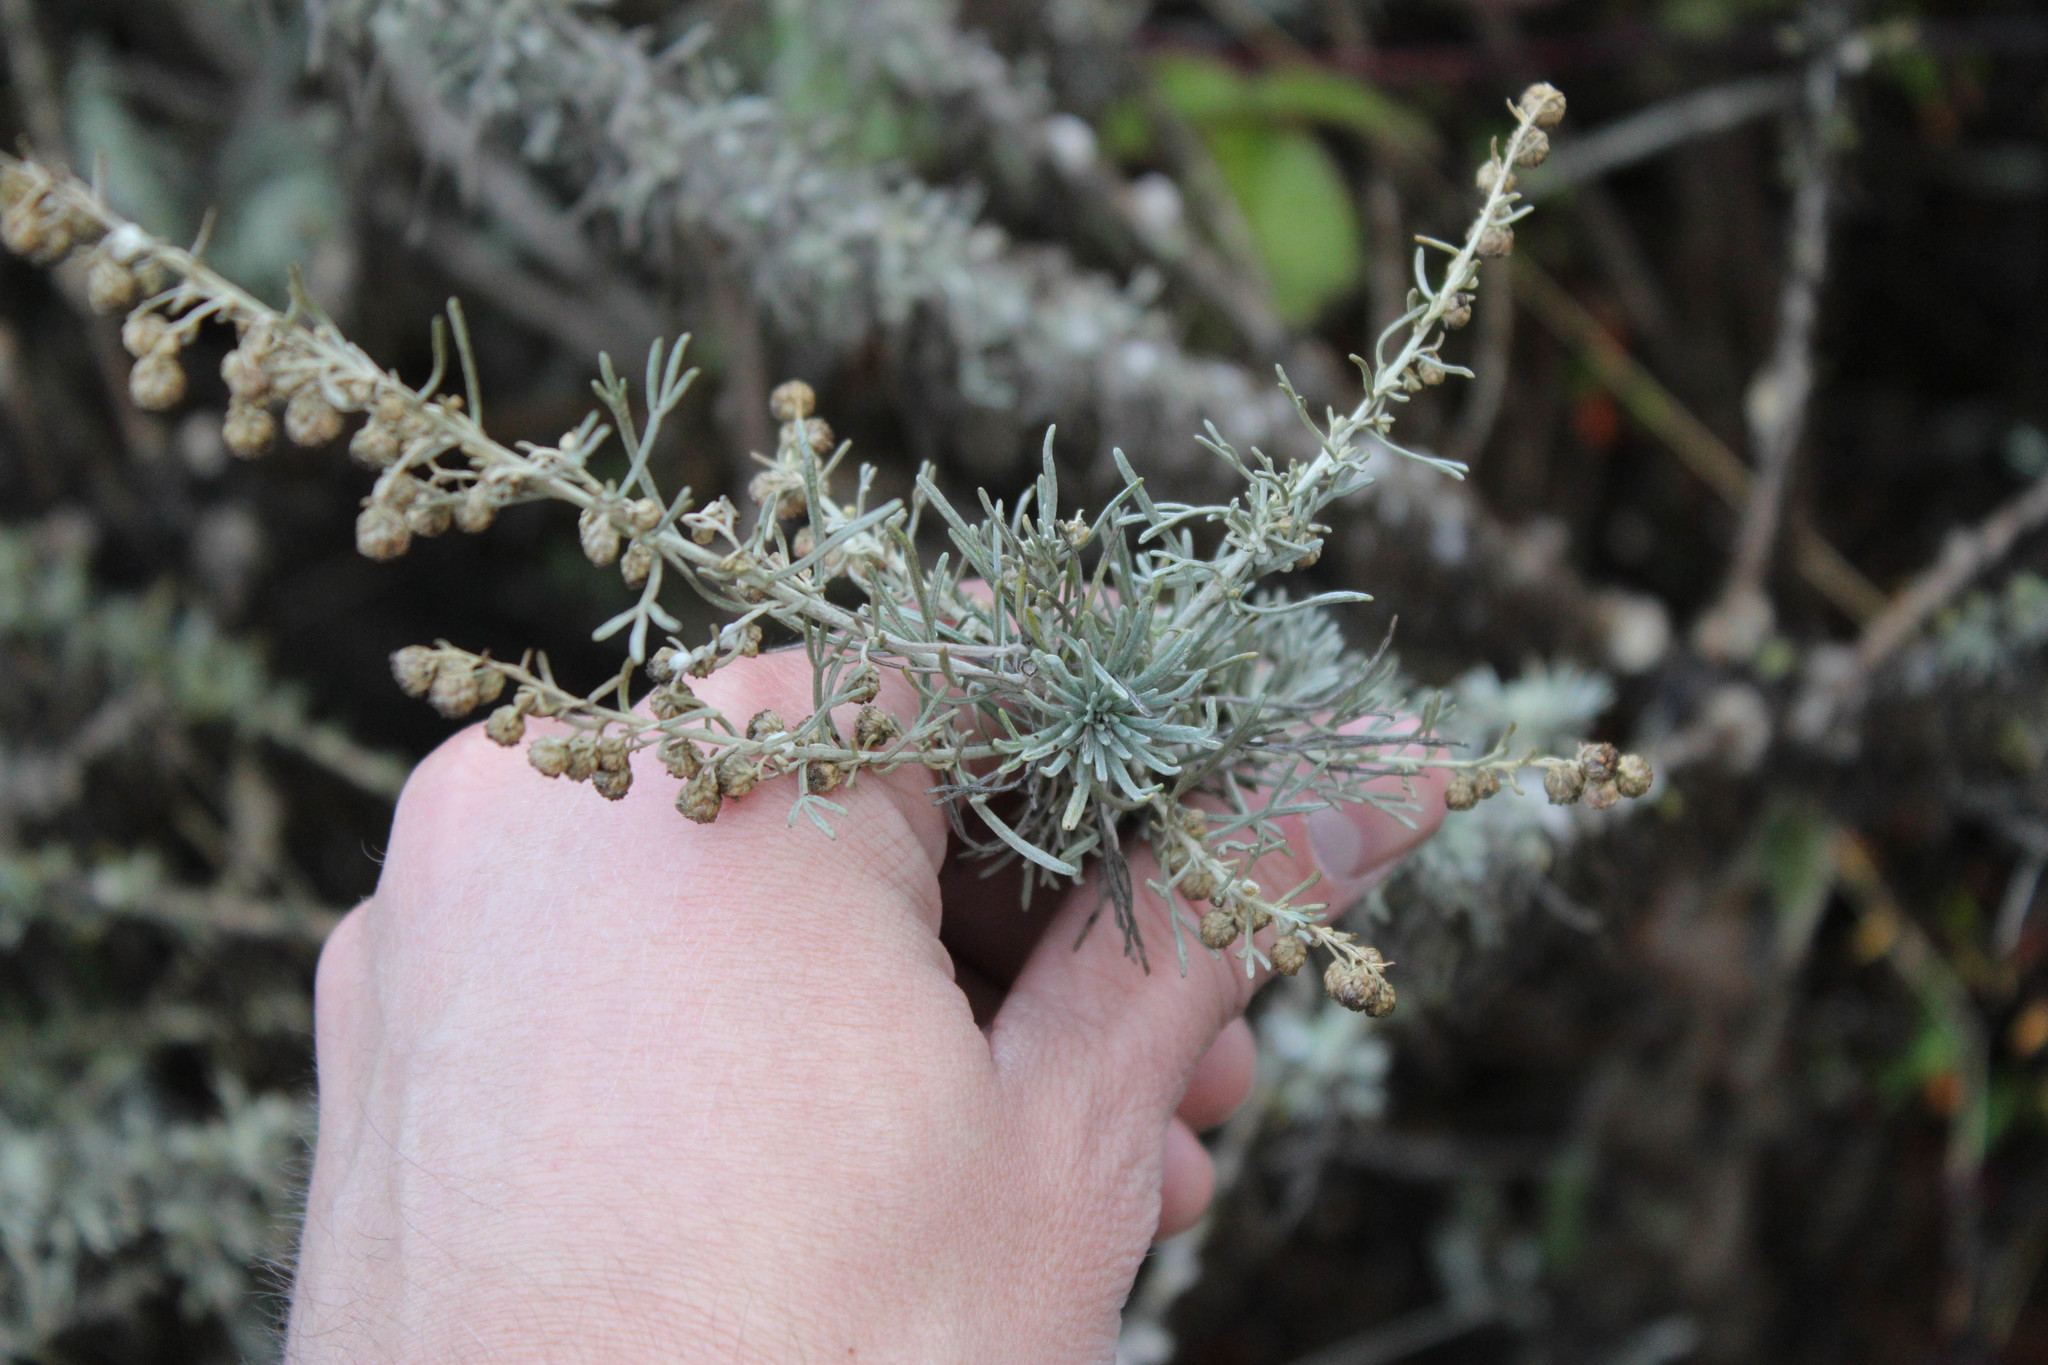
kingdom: Plantae
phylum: Tracheophyta
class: Magnoliopsida
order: Asterales
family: Asteraceae
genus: Artemisia
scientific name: Artemisia californica
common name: California sagebrush
